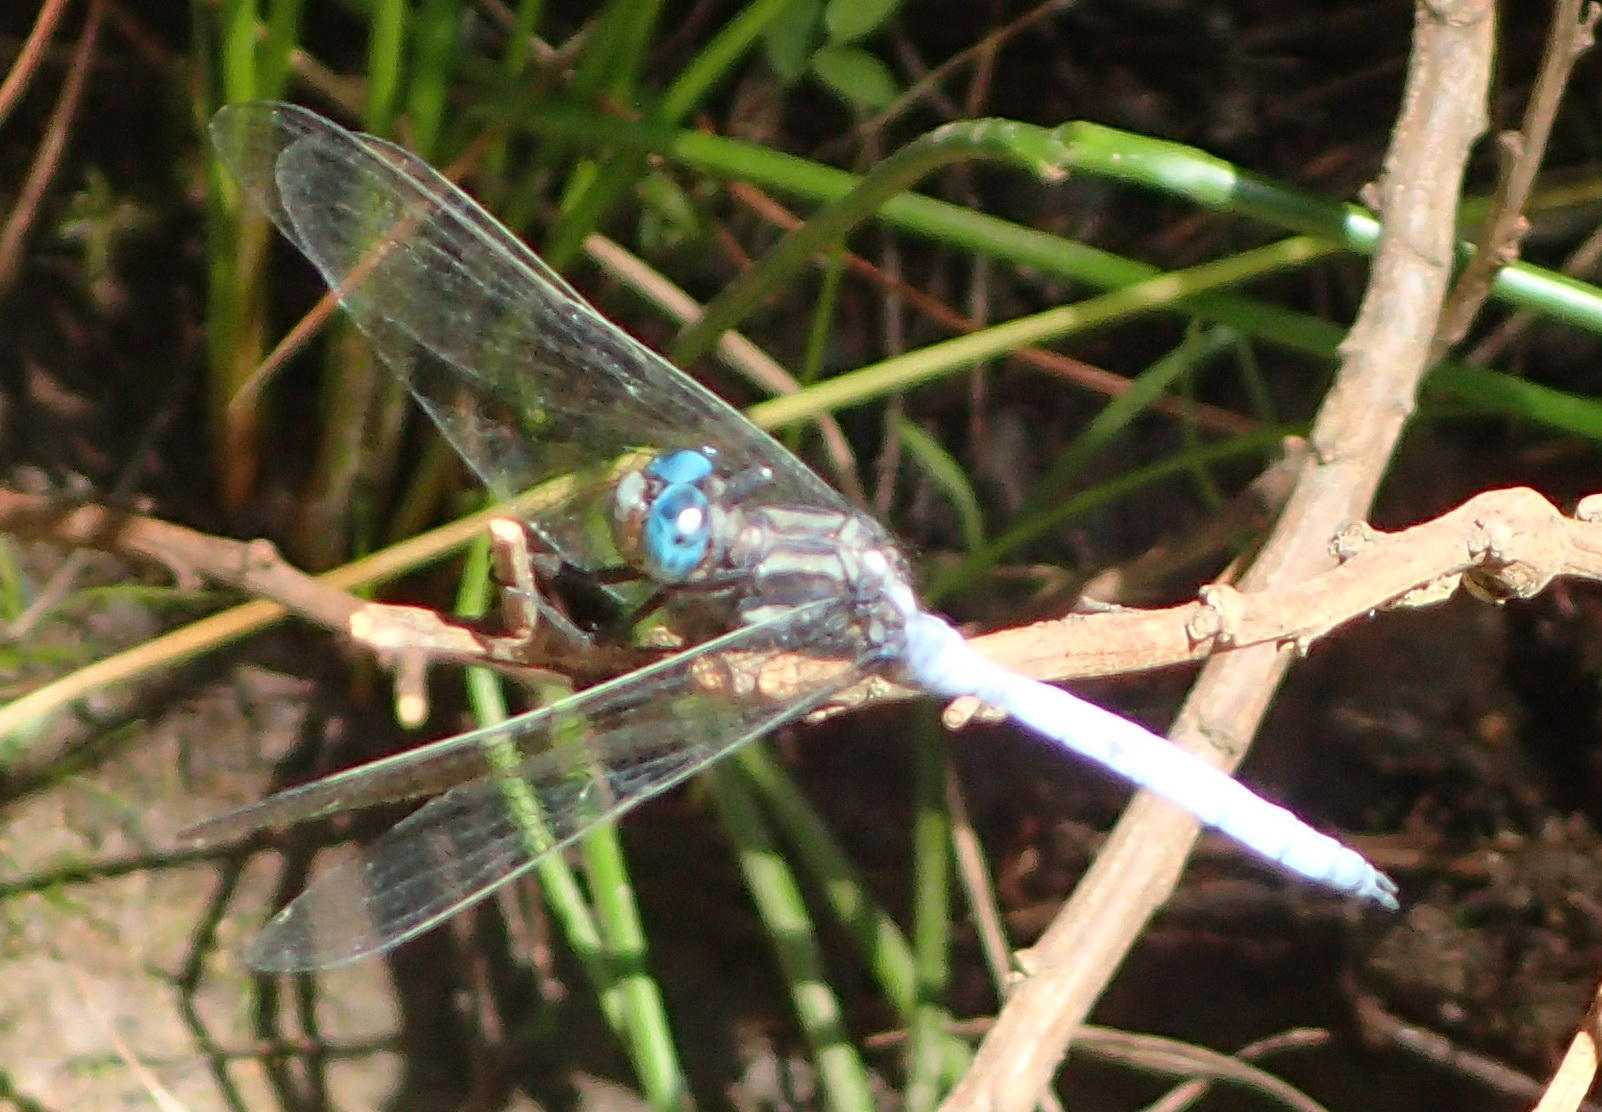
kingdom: Animalia
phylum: Arthropoda
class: Insecta
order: Odonata
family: Libellulidae
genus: Orthetrum
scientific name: Orthetrum julia
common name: Julia skimmer
